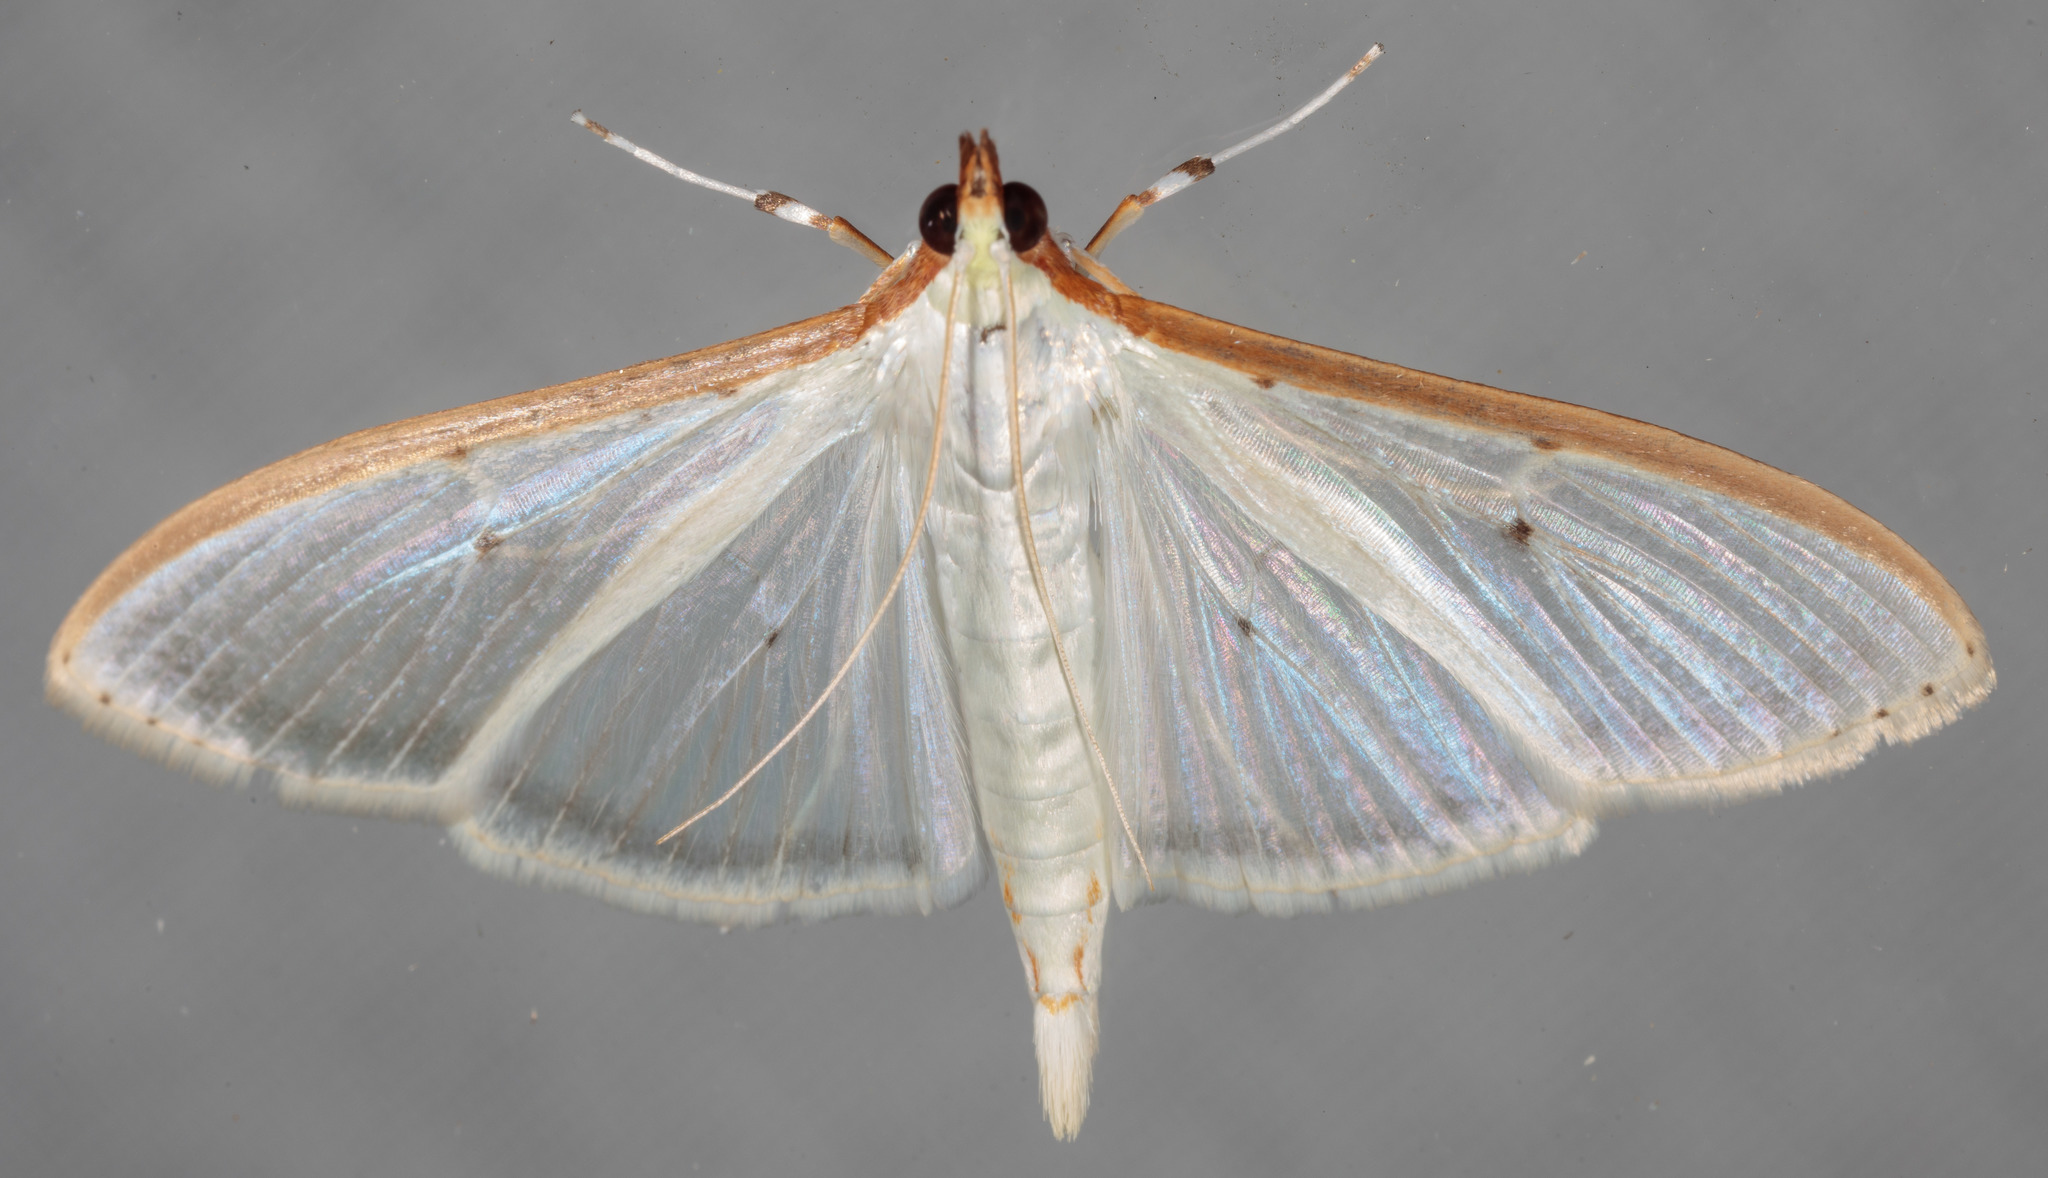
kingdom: Animalia
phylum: Arthropoda
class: Insecta
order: Lepidoptera
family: Crambidae
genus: Palpita
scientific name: Palpita quadristigmalis
